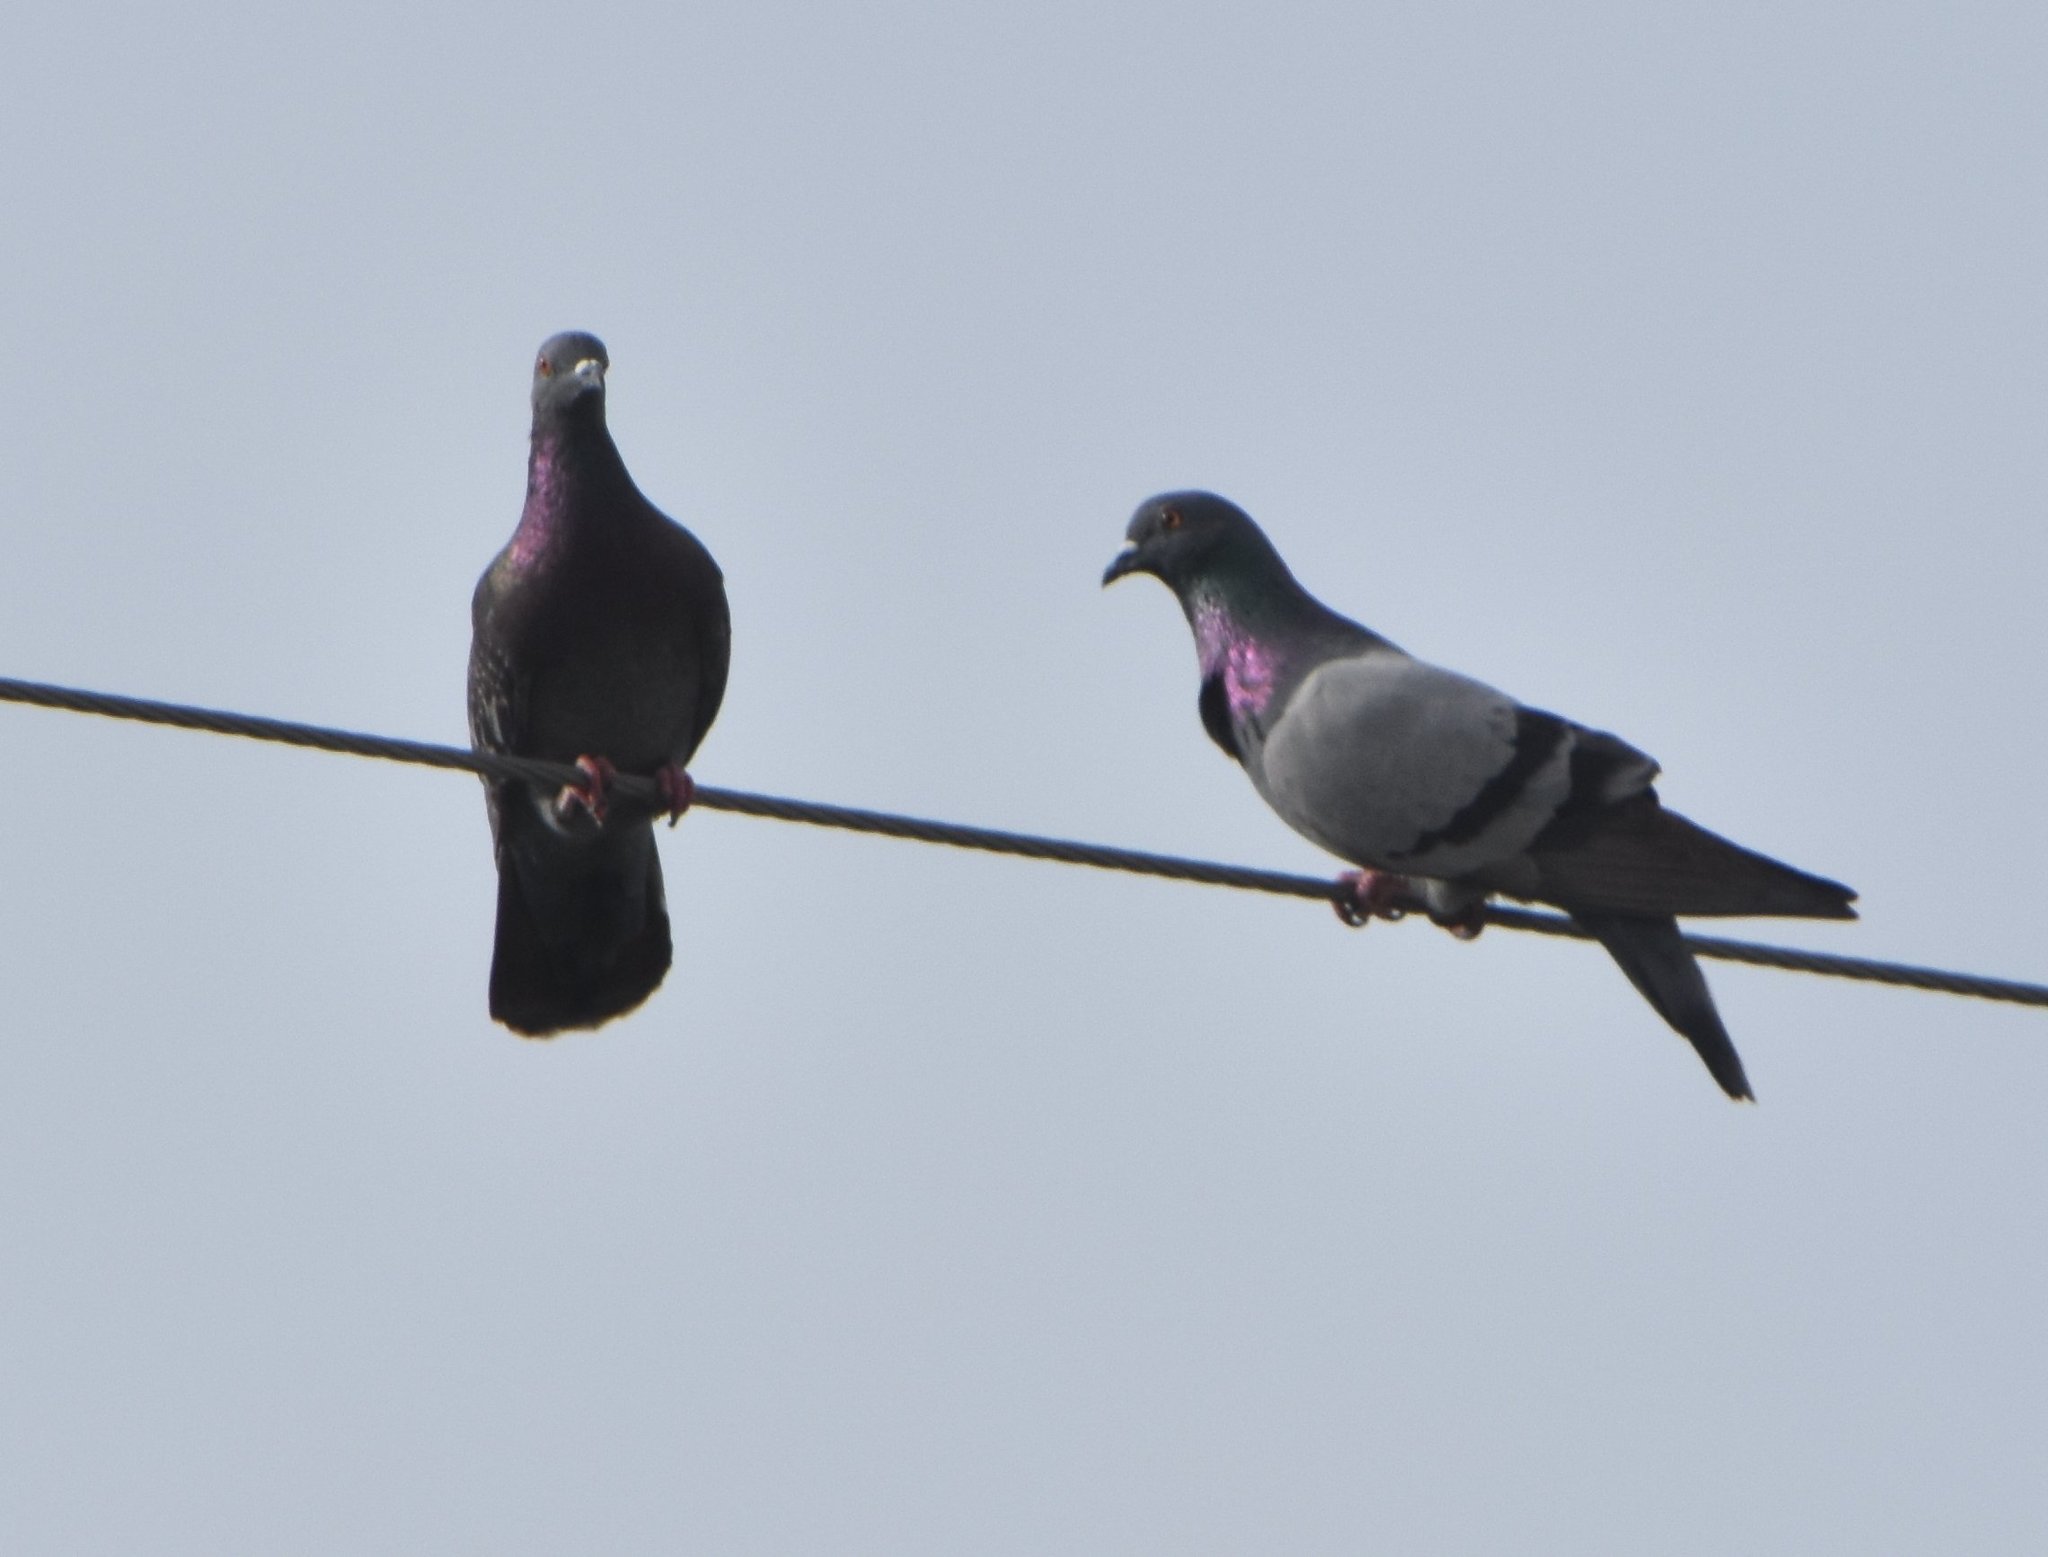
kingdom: Animalia
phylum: Chordata
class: Aves
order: Columbiformes
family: Columbidae
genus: Columba
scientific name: Columba livia
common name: Rock pigeon
